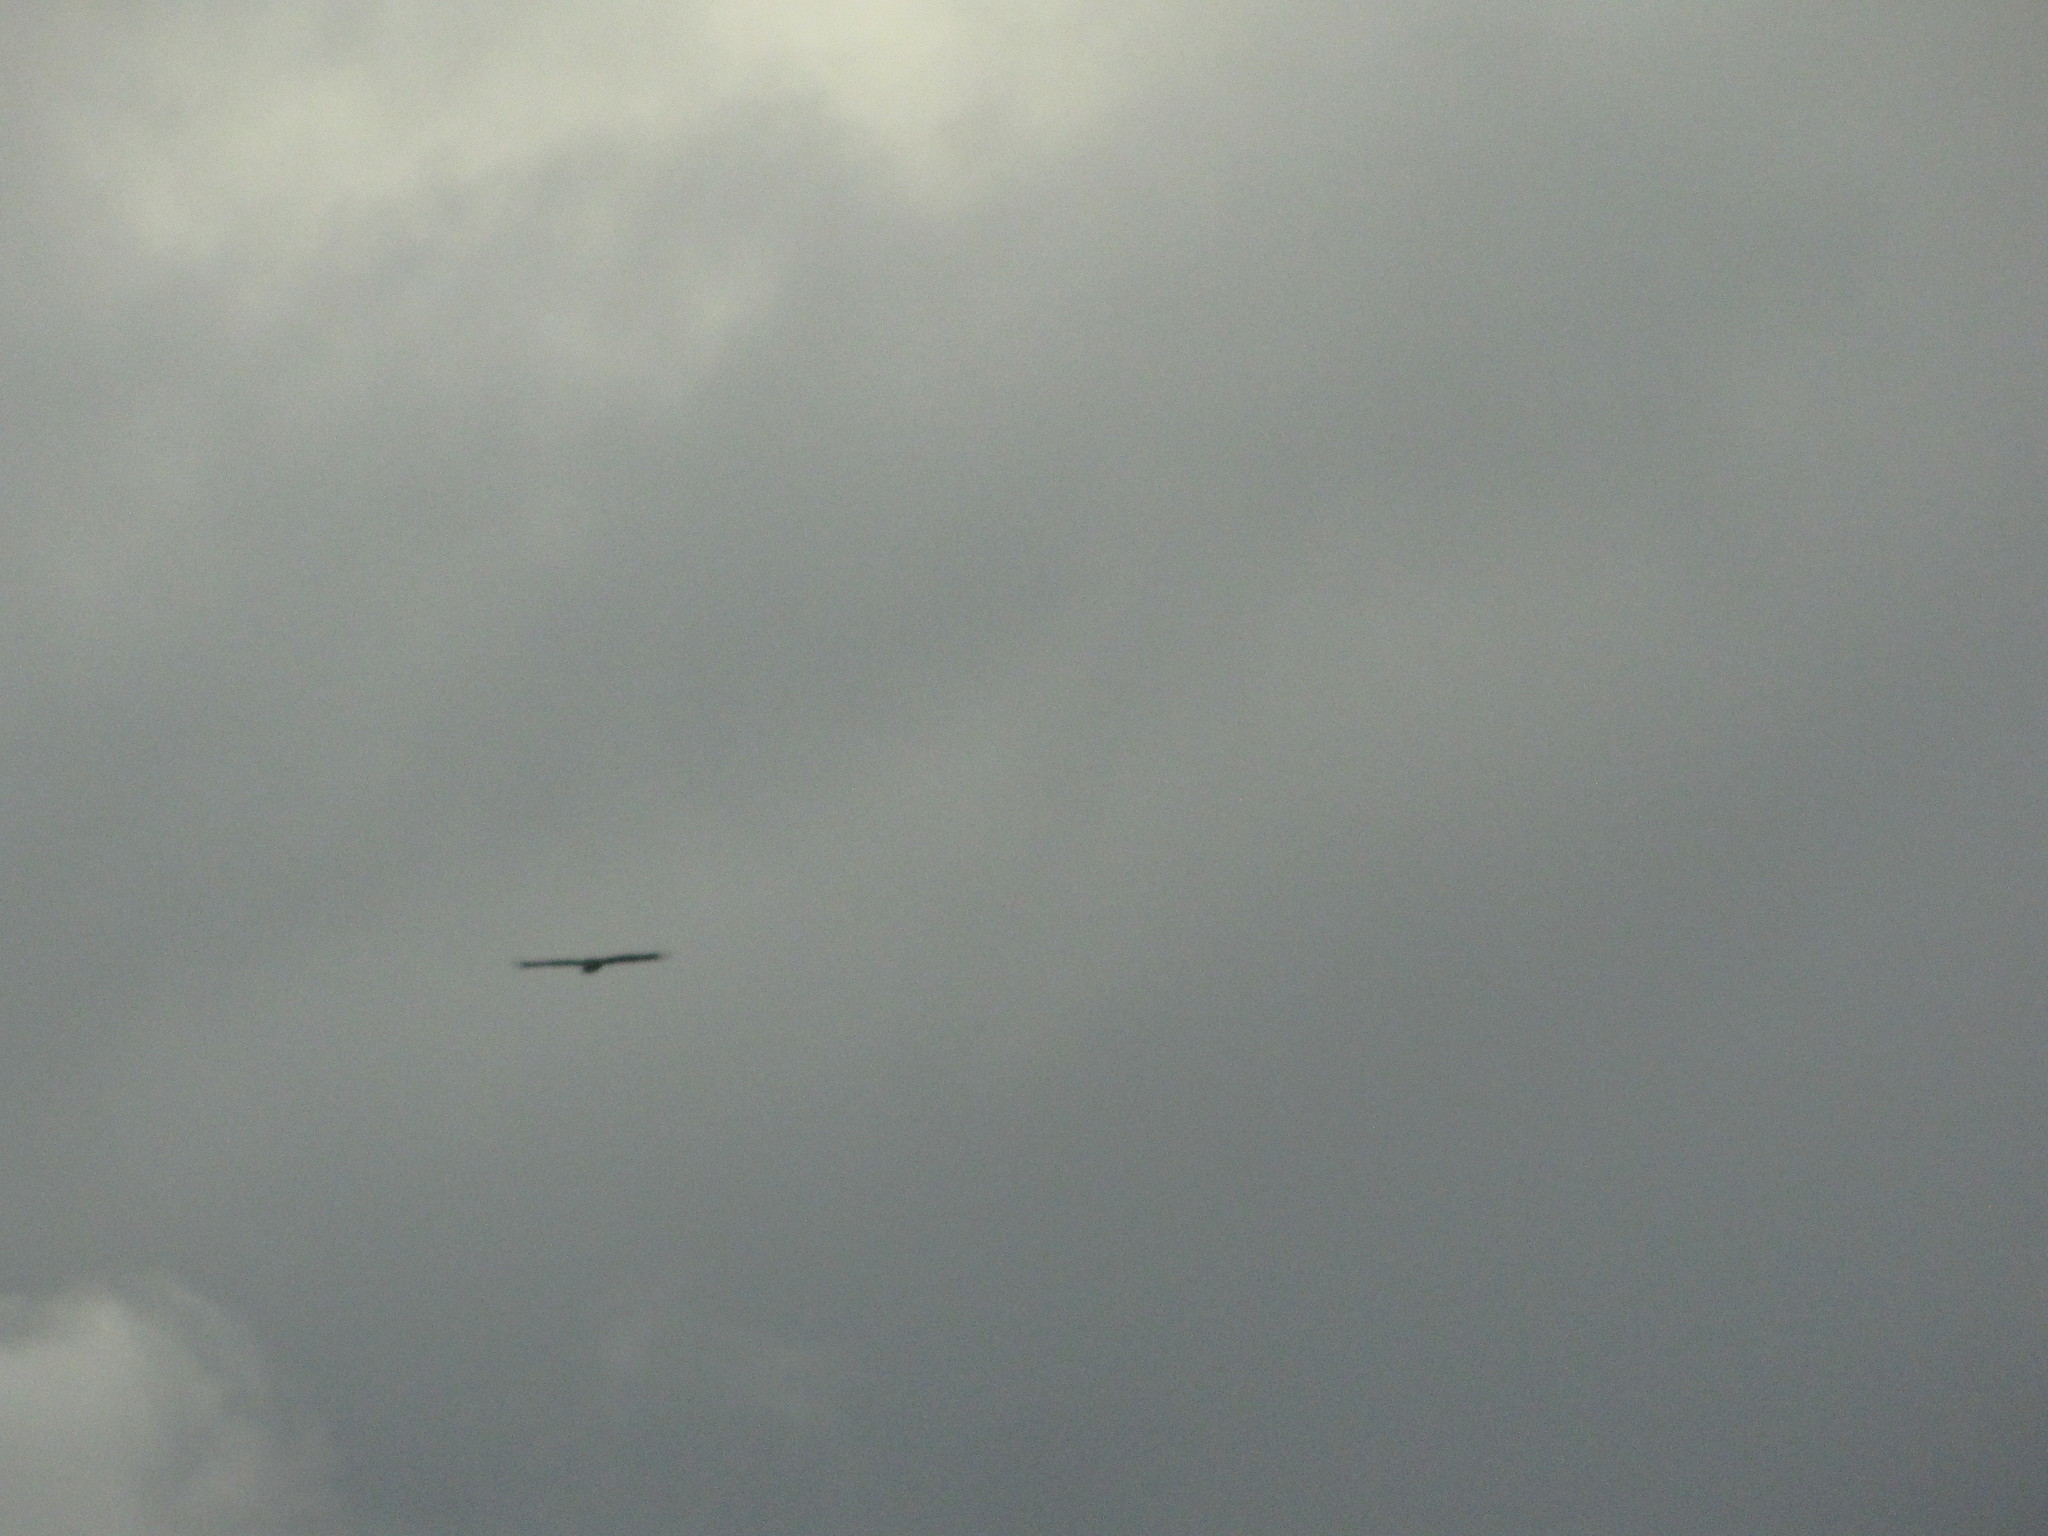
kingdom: Animalia
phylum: Chordata
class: Aves
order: Accipitriformes
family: Accipitridae
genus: Haliaeetus
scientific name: Haliaeetus leucocephalus
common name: Bald eagle
